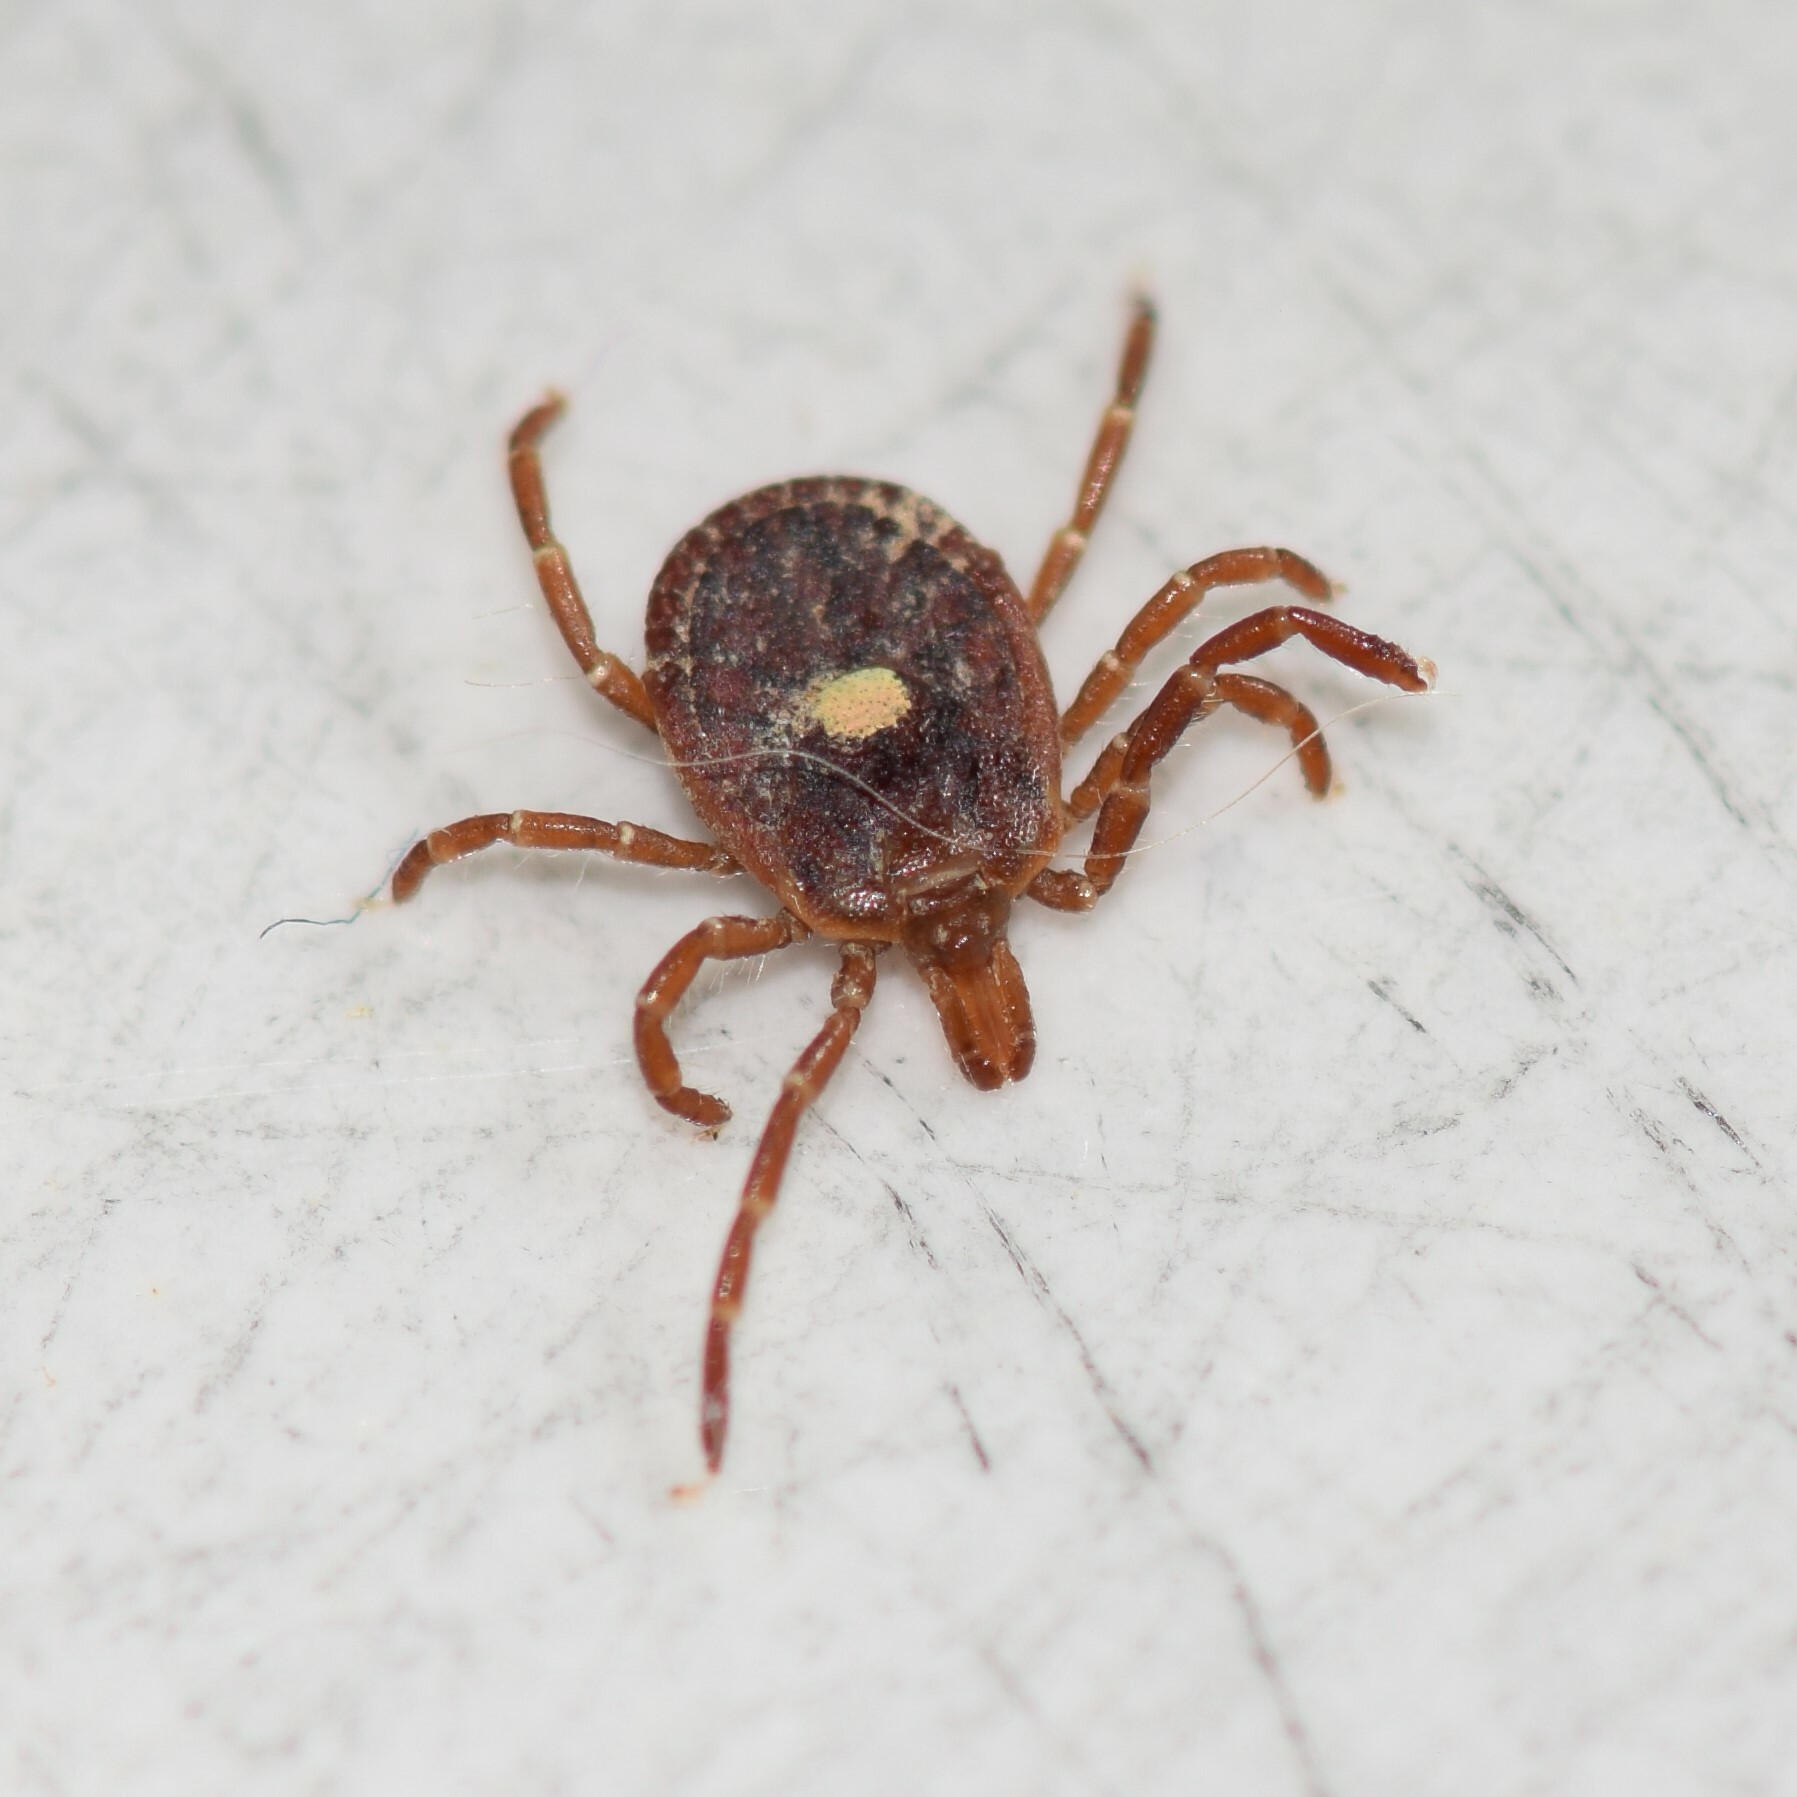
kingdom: Animalia
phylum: Arthropoda
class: Arachnida
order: Ixodida
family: Ixodidae
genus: Amblyomma
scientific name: Amblyomma americanum
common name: Lone star tick
